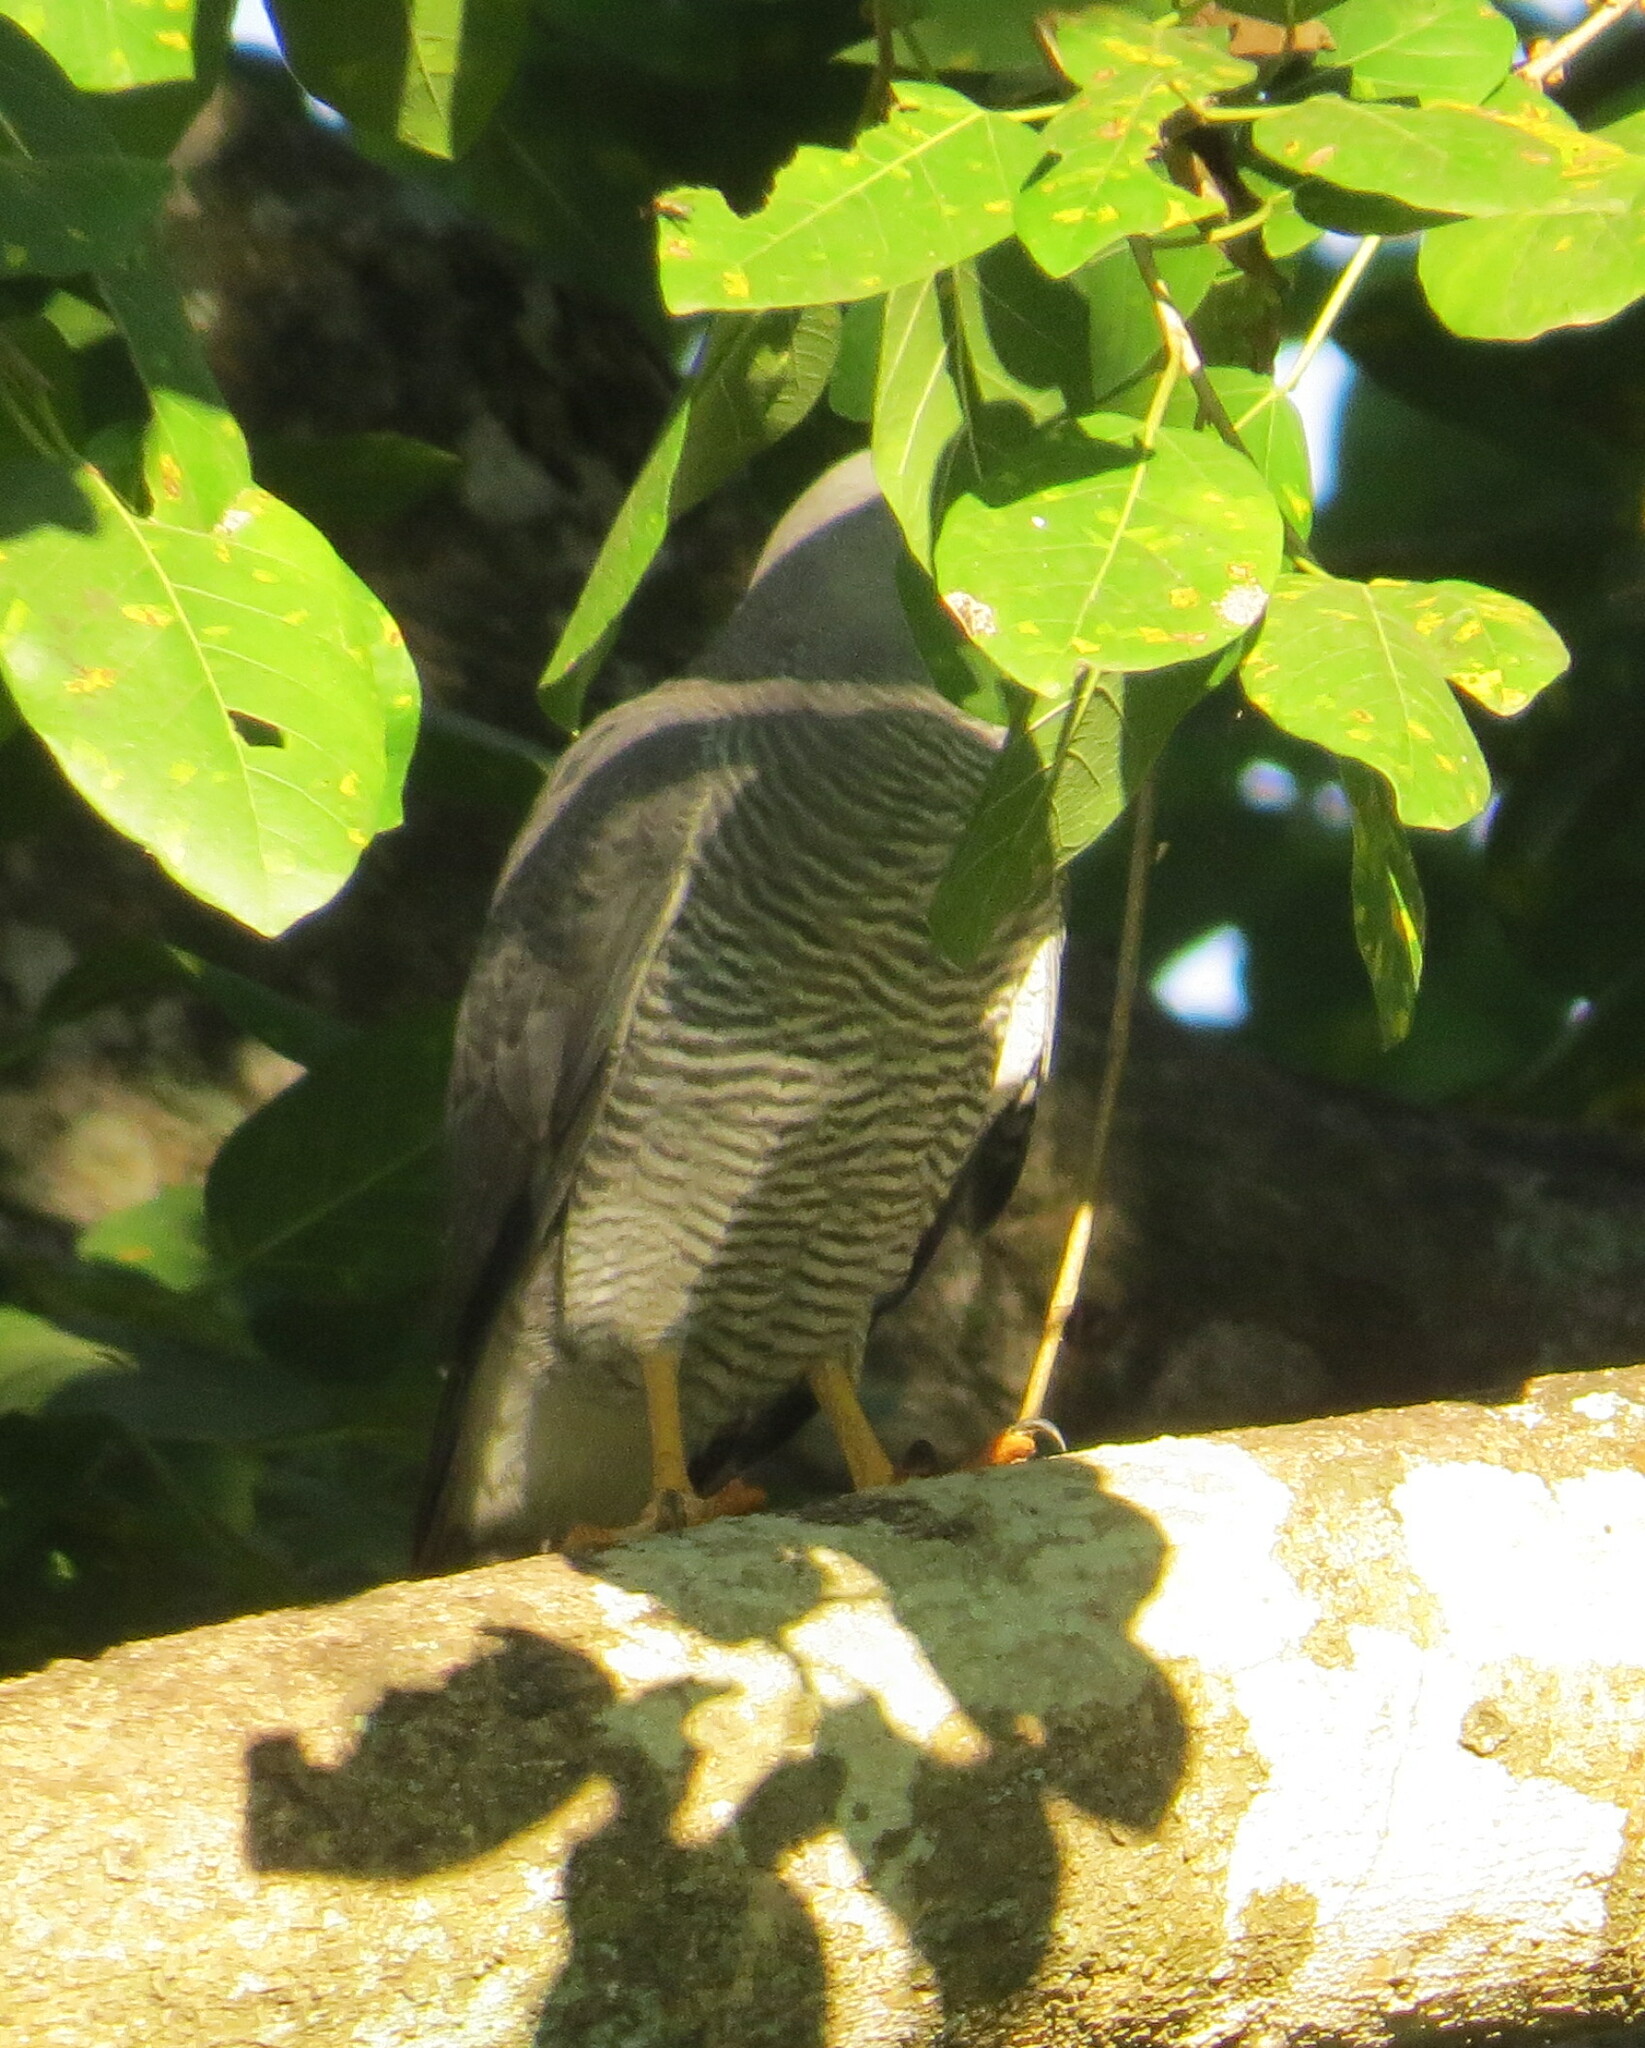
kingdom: Animalia
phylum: Chordata
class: Aves
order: Accipitriformes
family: Accipitridae
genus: Buteo
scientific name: Buteo nitidus
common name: Grey-lined hawk
